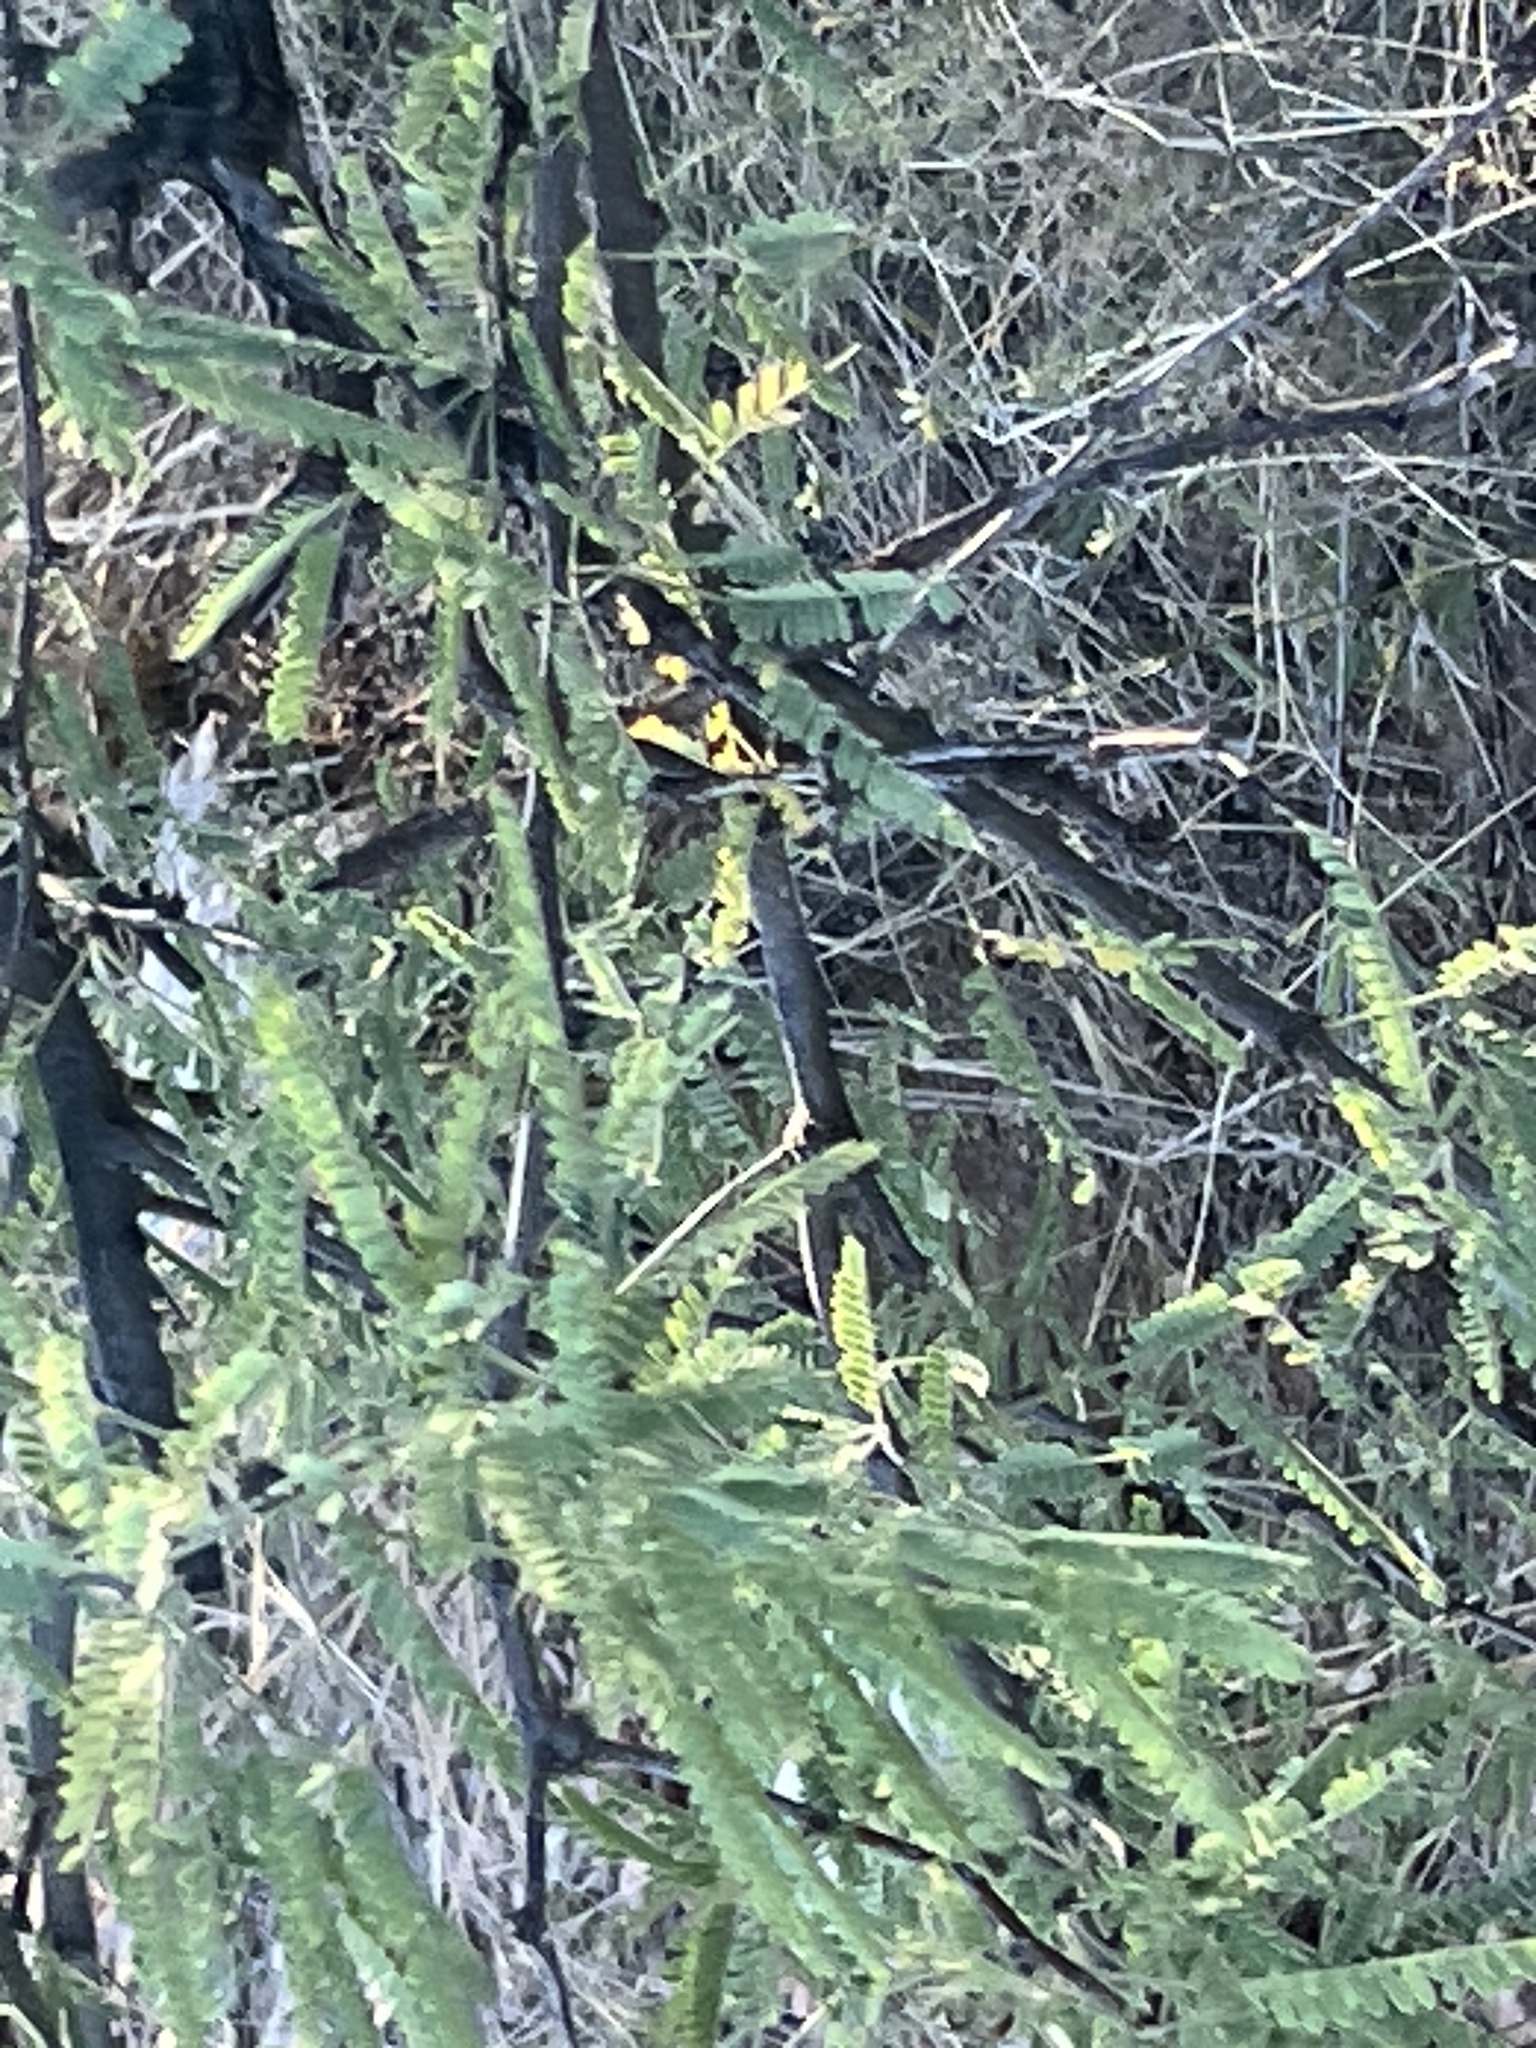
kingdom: Plantae
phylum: Tracheophyta
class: Magnoliopsida
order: Fabales
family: Fabaceae
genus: Prosopis
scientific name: Prosopis velutina
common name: Velvet mesquite
